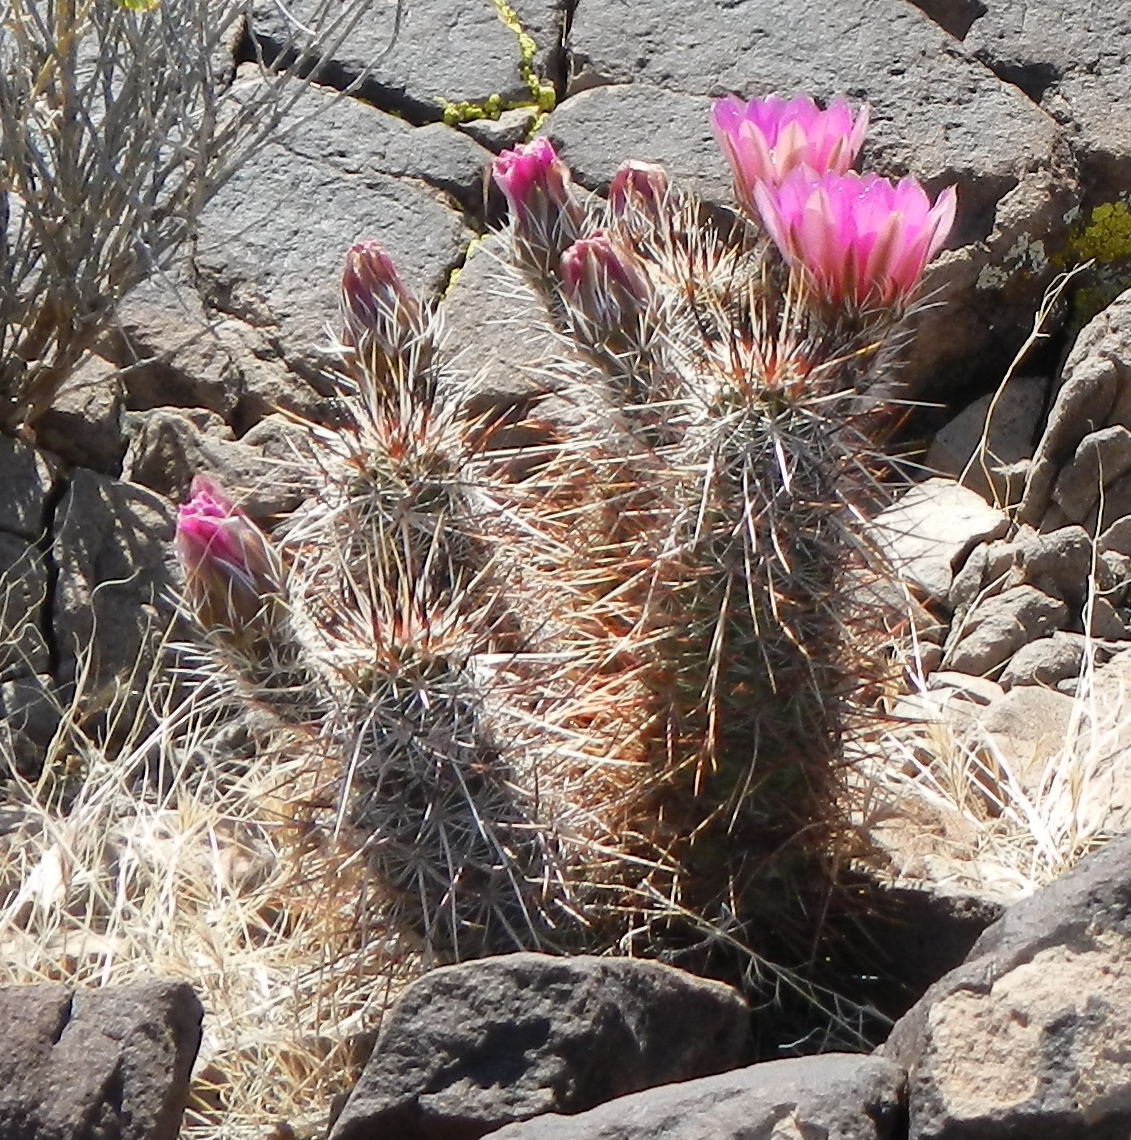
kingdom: Plantae
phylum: Tracheophyta
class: Magnoliopsida
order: Caryophyllales
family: Cactaceae
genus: Echinocereus
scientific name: Echinocereus engelmannii
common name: Engelmann's hedgehog cactus
